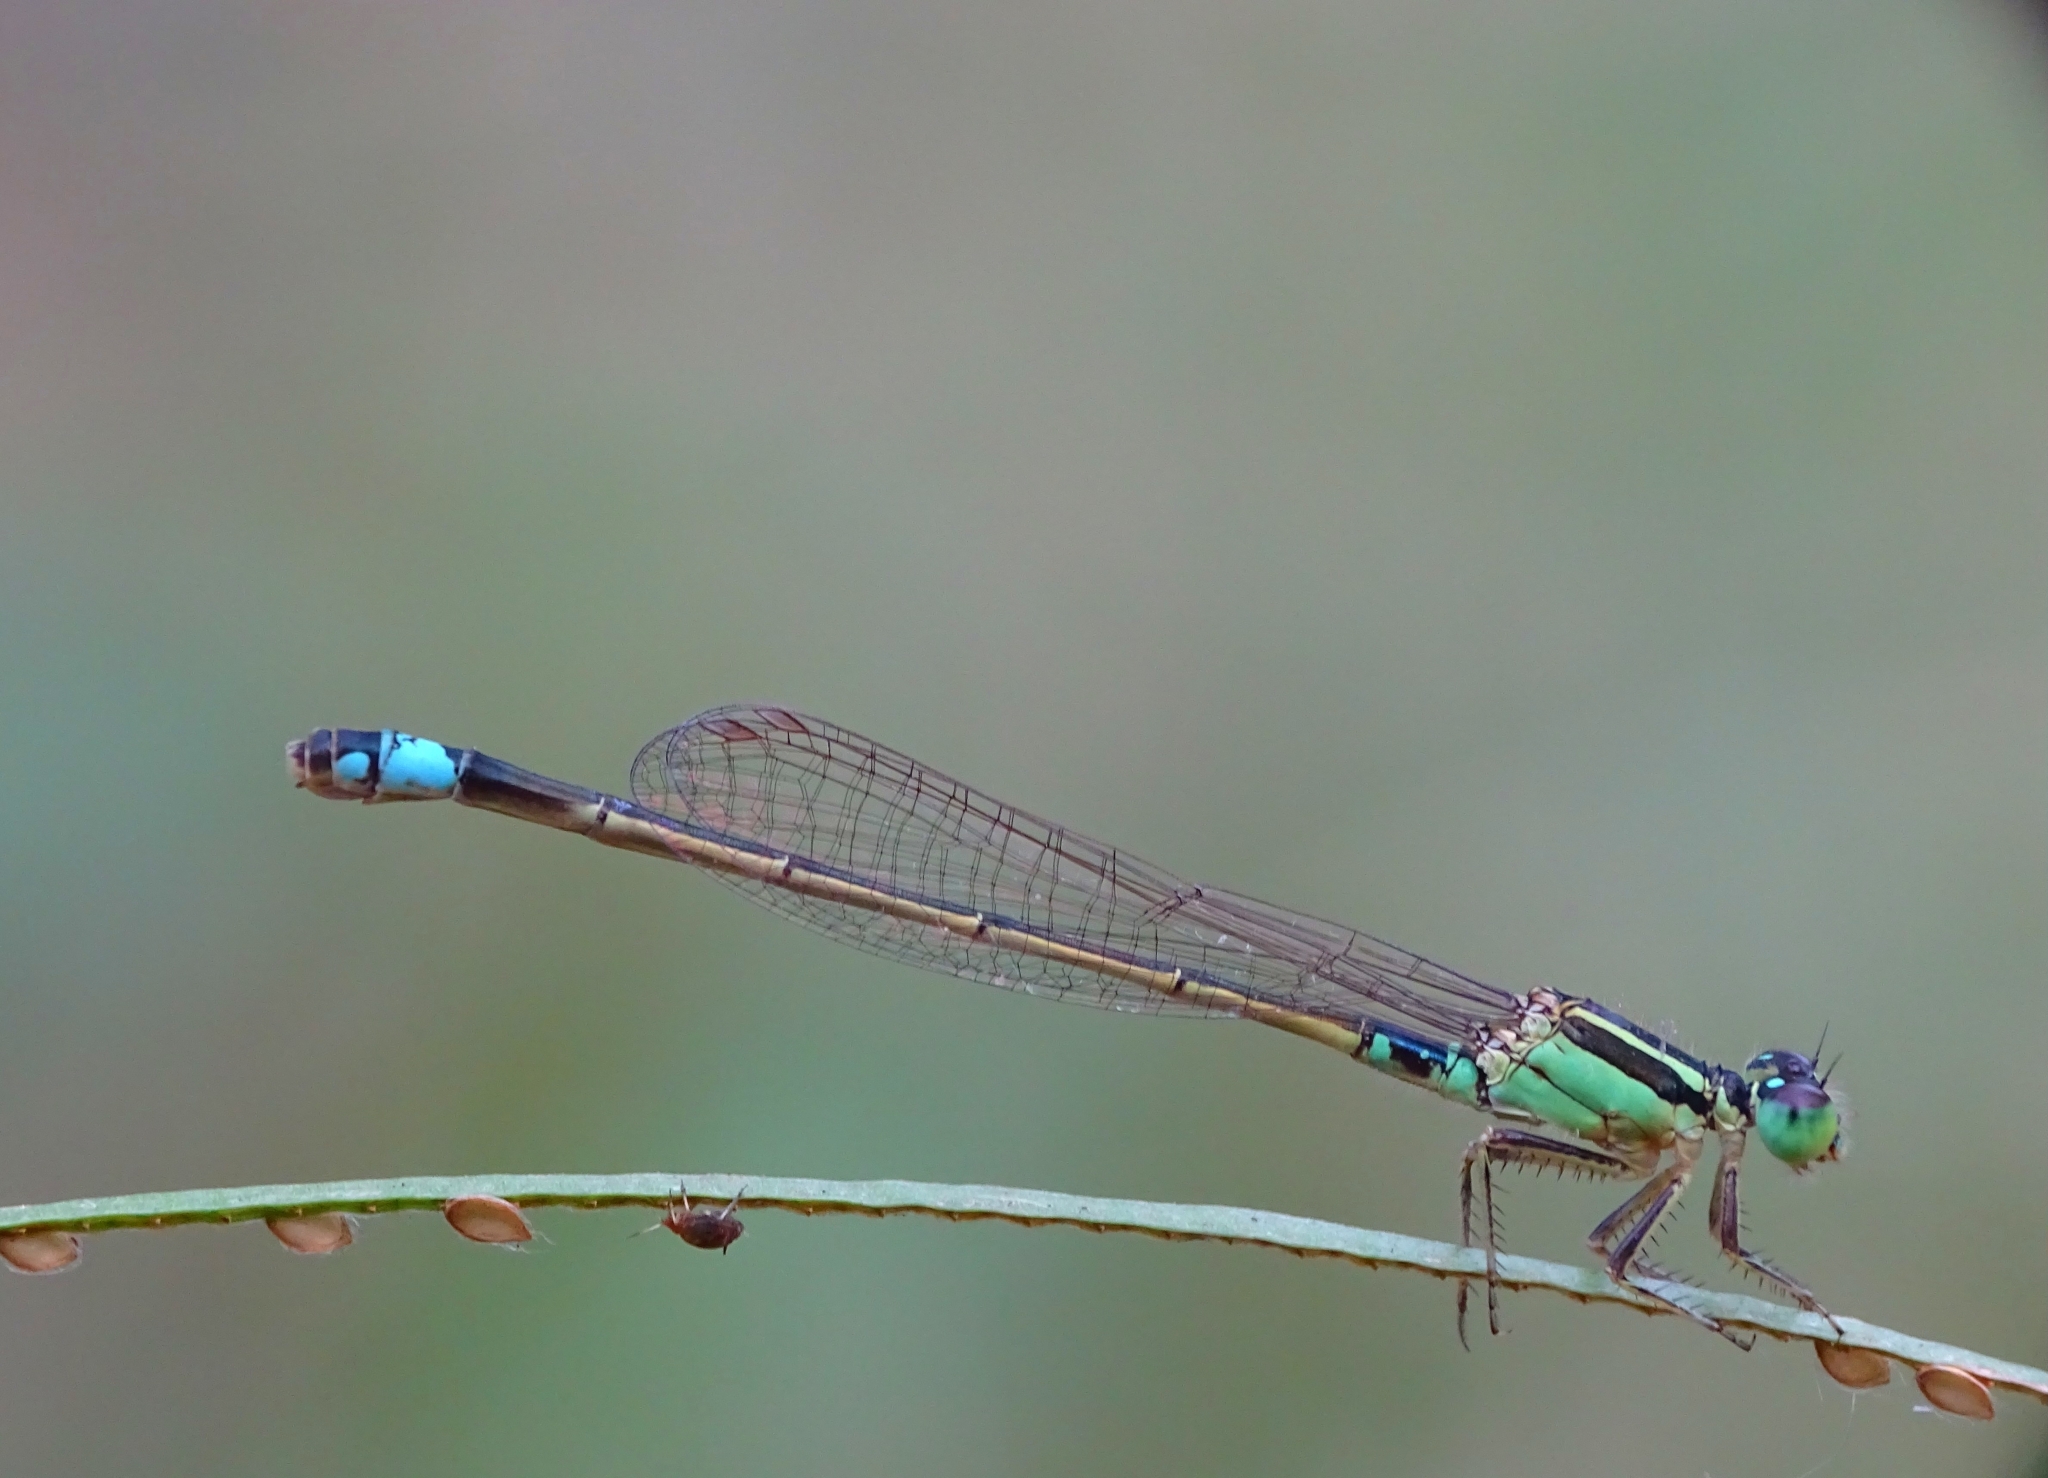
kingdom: Animalia
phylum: Arthropoda
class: Insecta
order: Odonata
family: Coenagrionidae
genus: Ischnura
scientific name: Ischnura senegalensis
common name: Tropical bluetail
